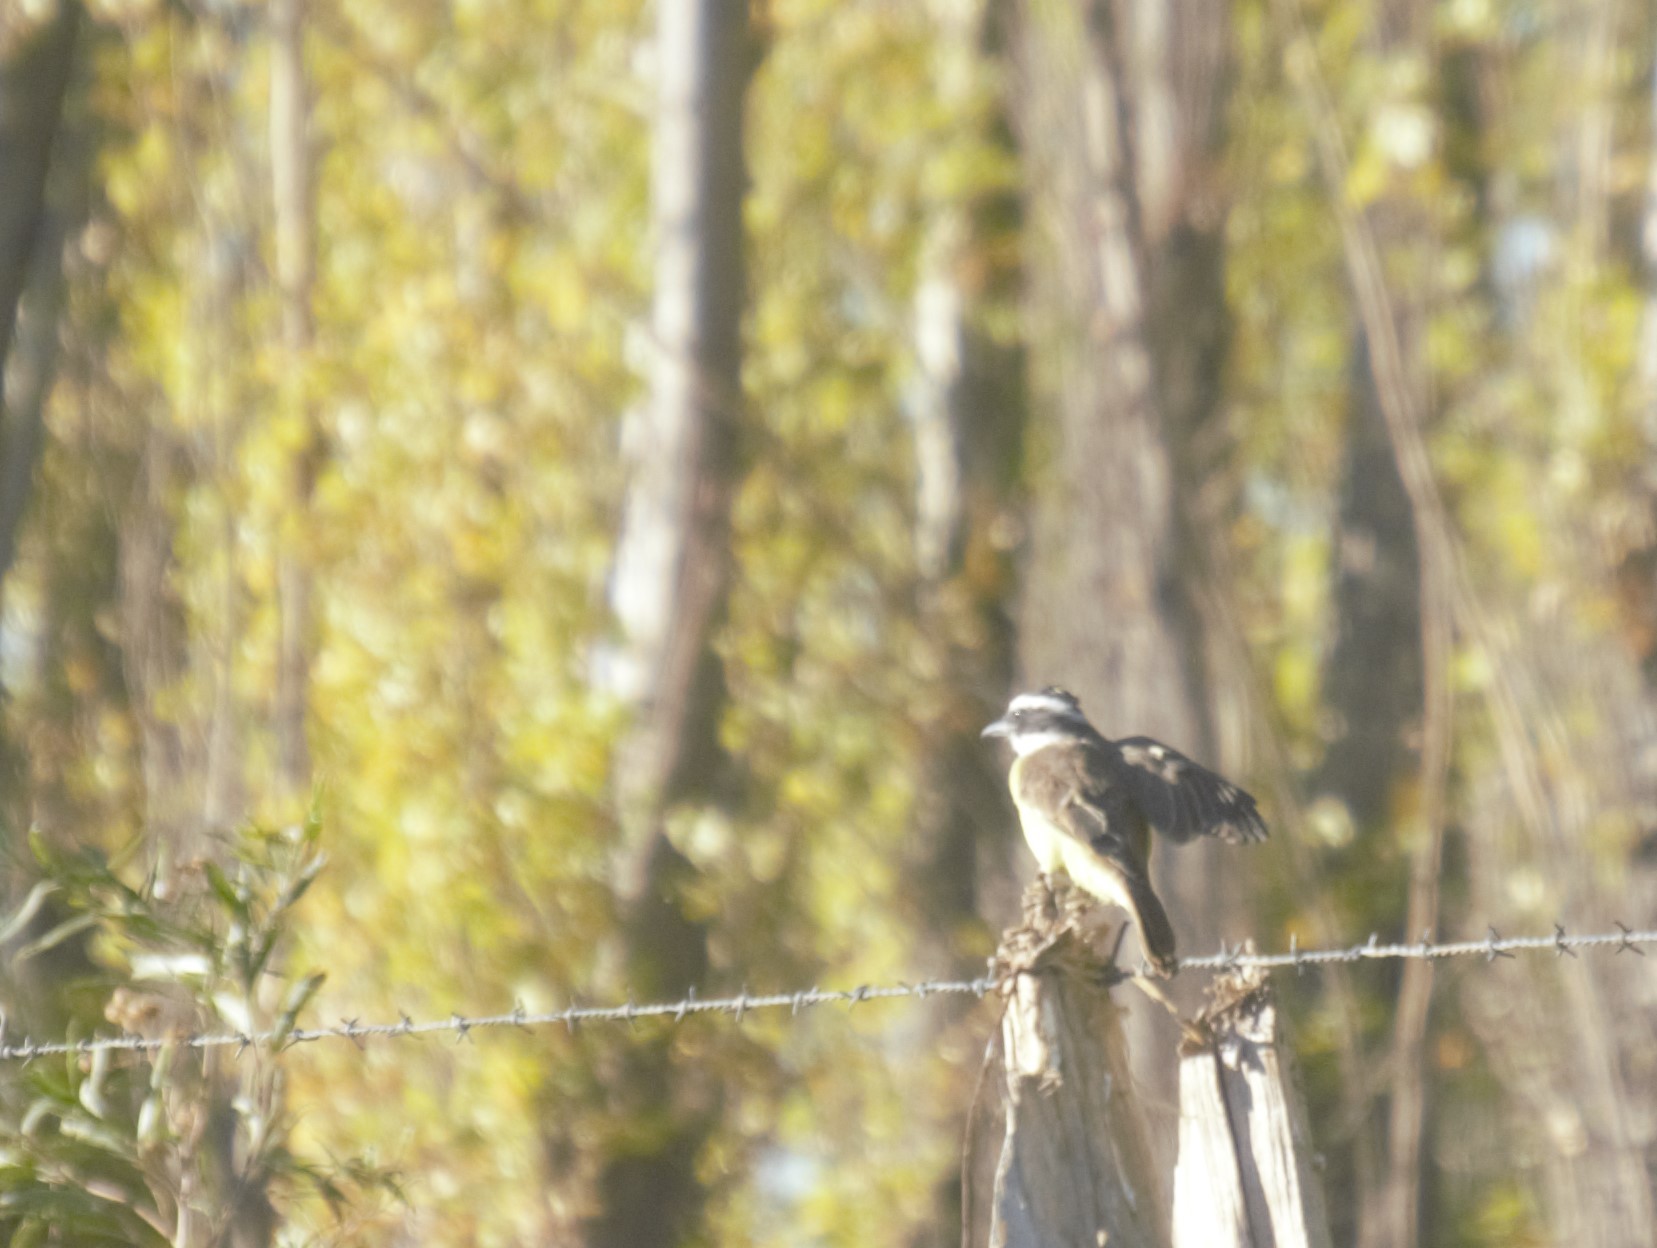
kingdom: Animalia
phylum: Chordata
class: Aves
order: Passeriformes
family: Tyrannidae
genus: Pitangus
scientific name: Pitangus sulphuratus
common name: Great kiskadee
